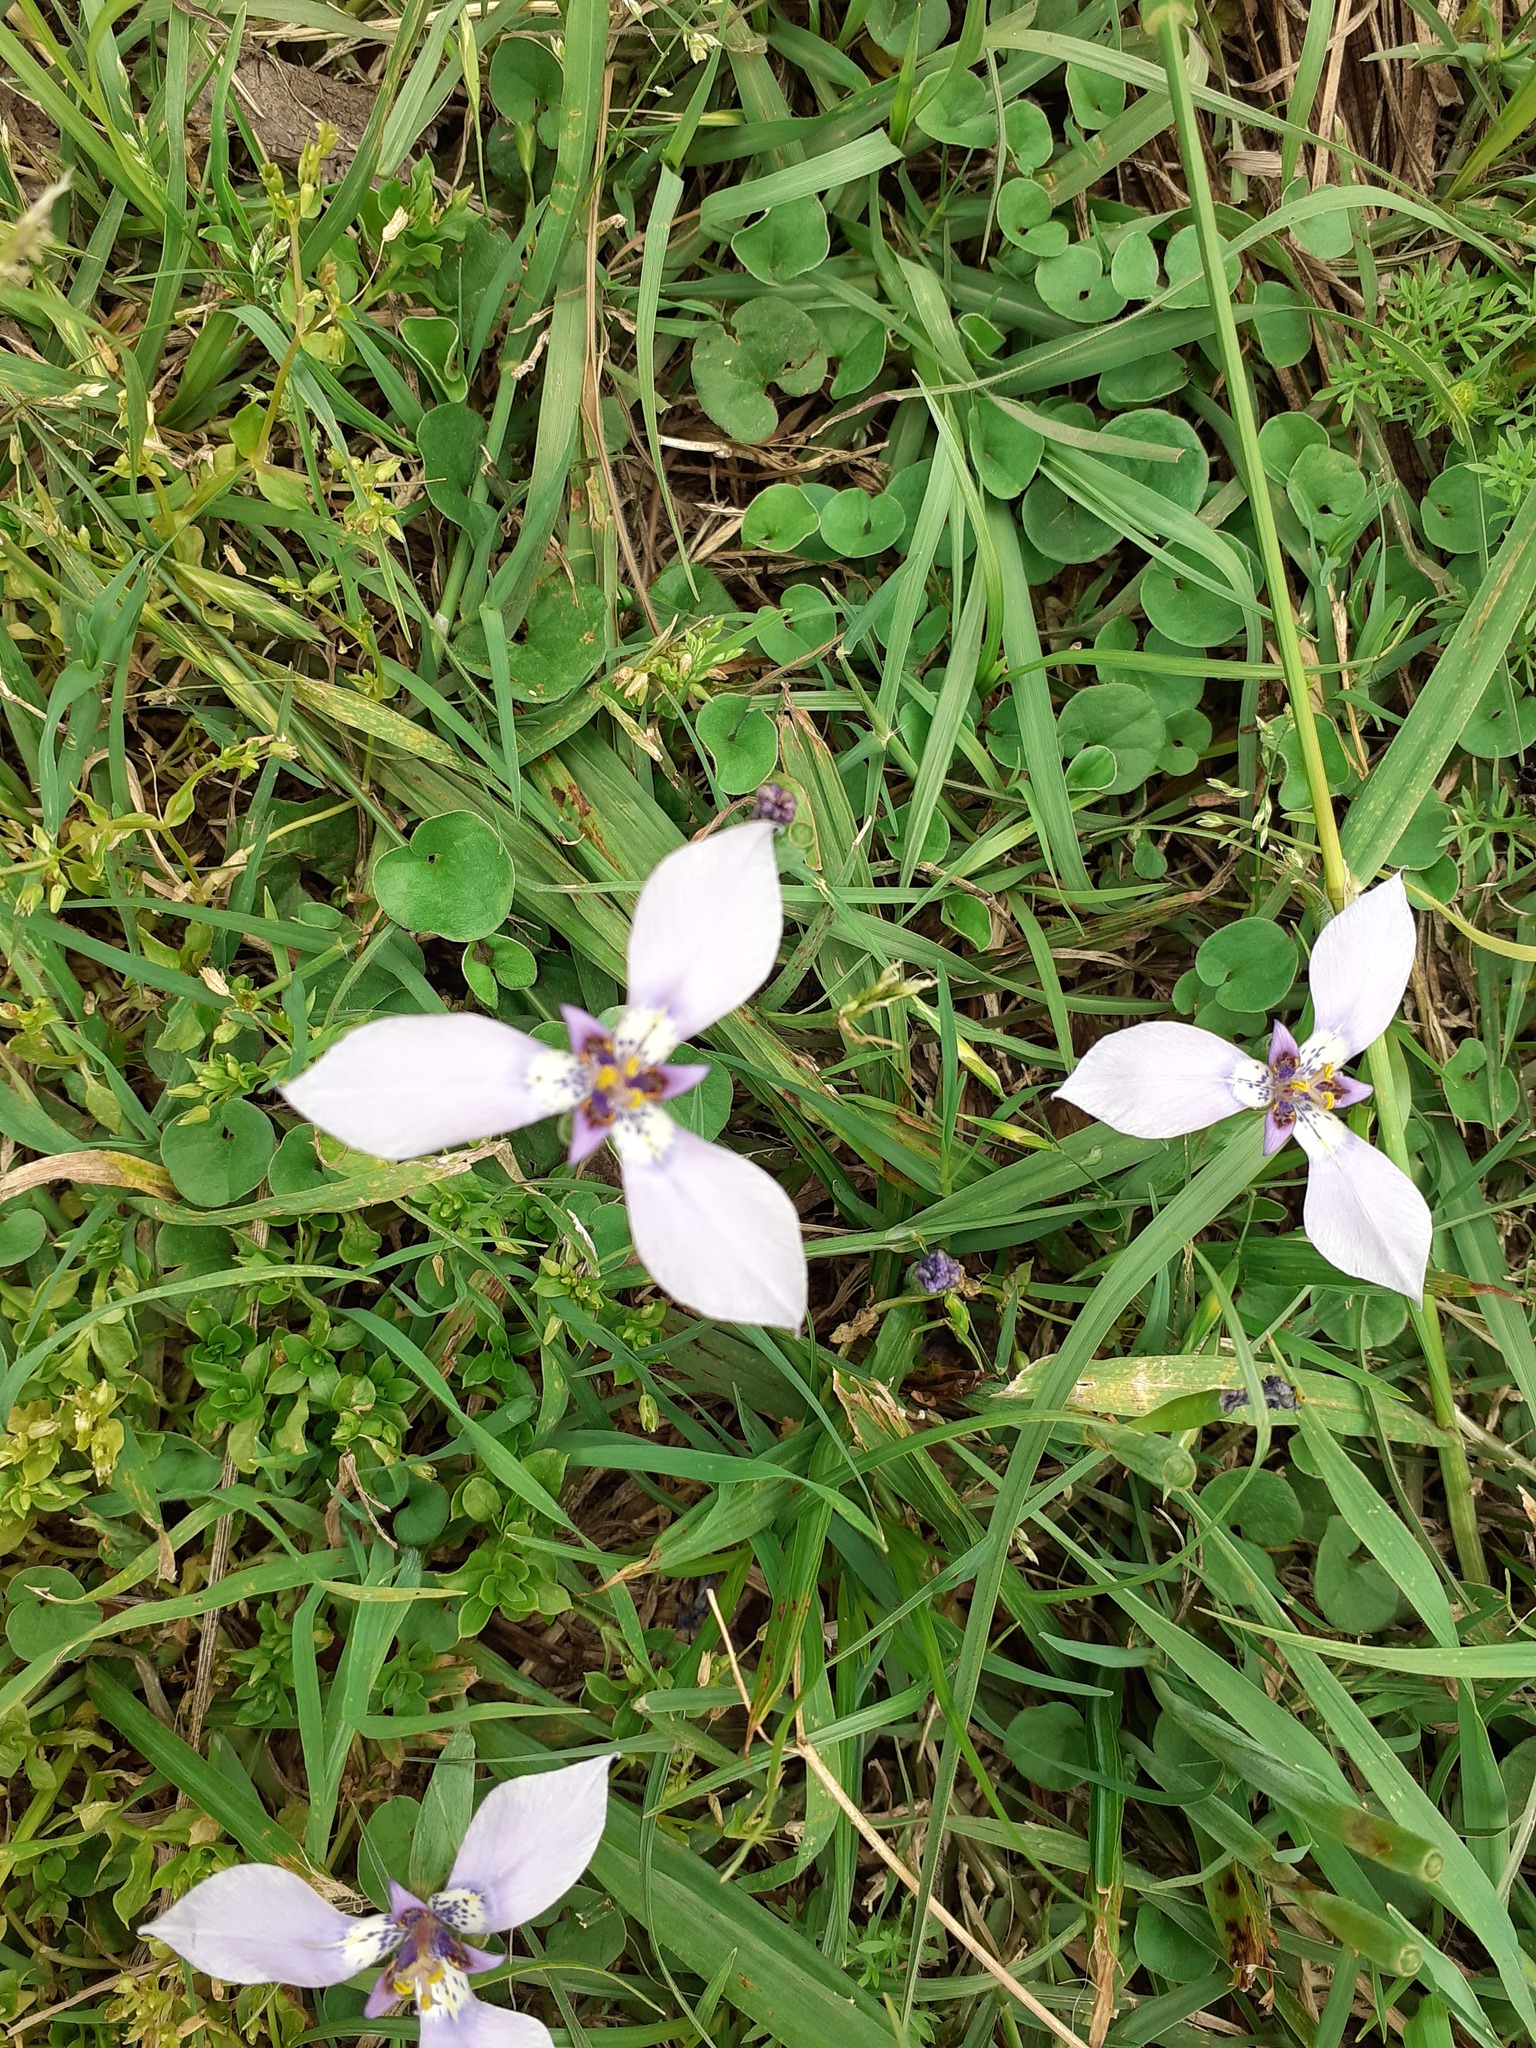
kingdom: Plantae
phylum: Tracheophyta
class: Liliopsida
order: Asparagales
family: Iridaceae
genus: Herbertia
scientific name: Herbertia lahue
